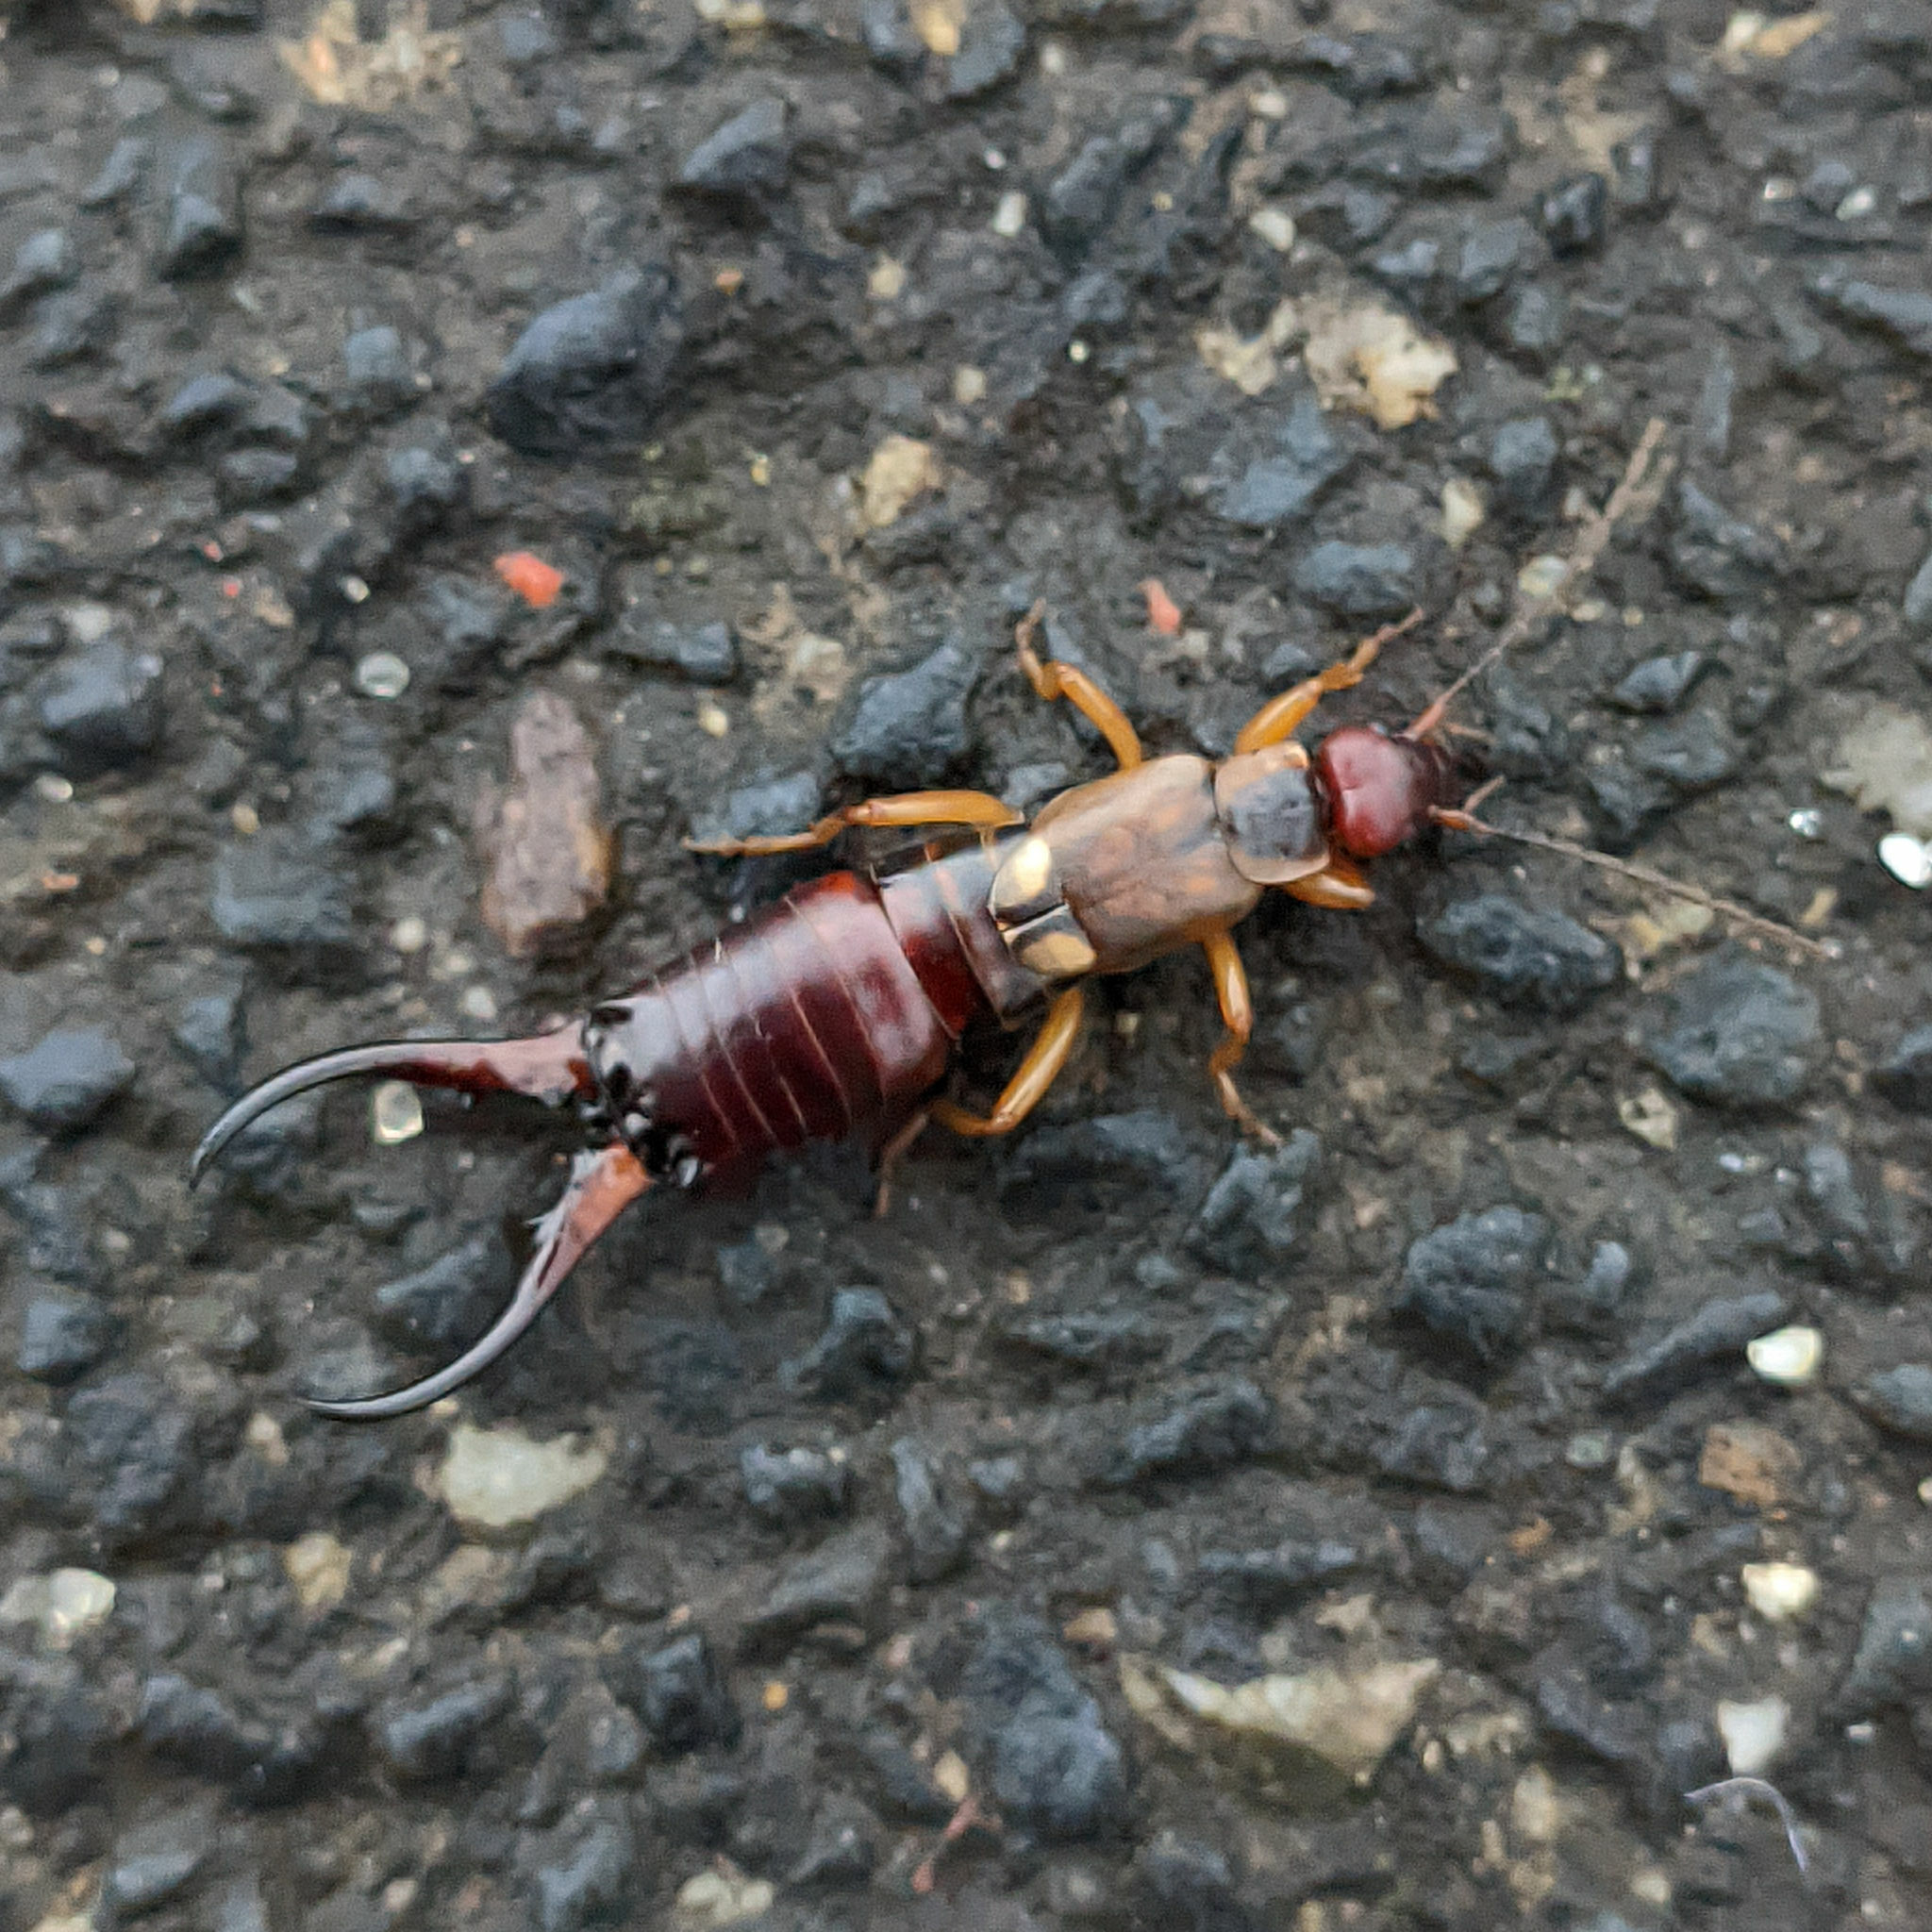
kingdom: Animalia
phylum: Arthropoda
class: Insecta
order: Dermaptera
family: Forficulidae
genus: Forficula
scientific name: Forficula
